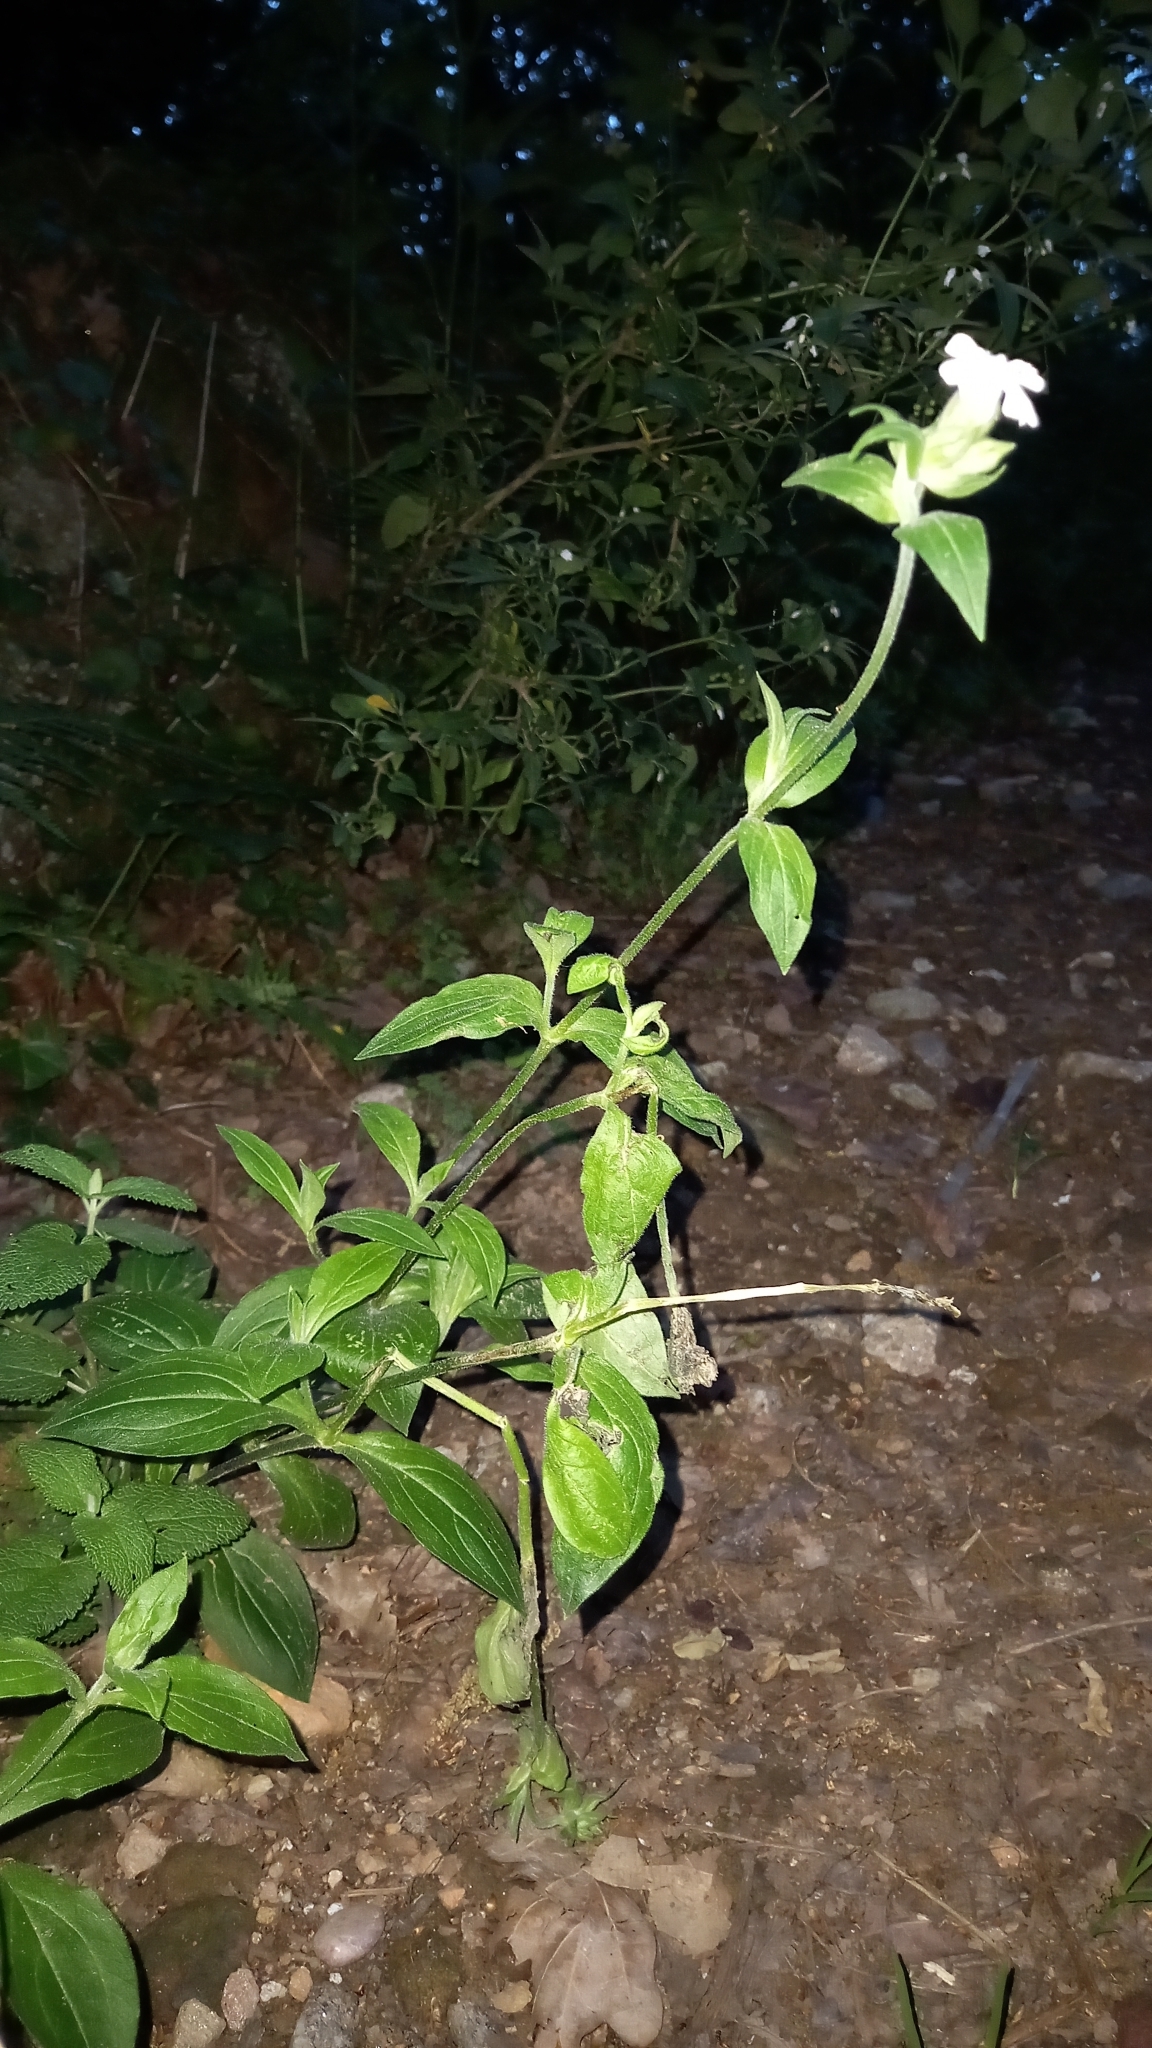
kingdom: Plantae
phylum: Tracheophyta
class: Magnoliopsida
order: Caryophyllales
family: Caryophyllaceae
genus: Silene
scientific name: Silene latifolia
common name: White campion
